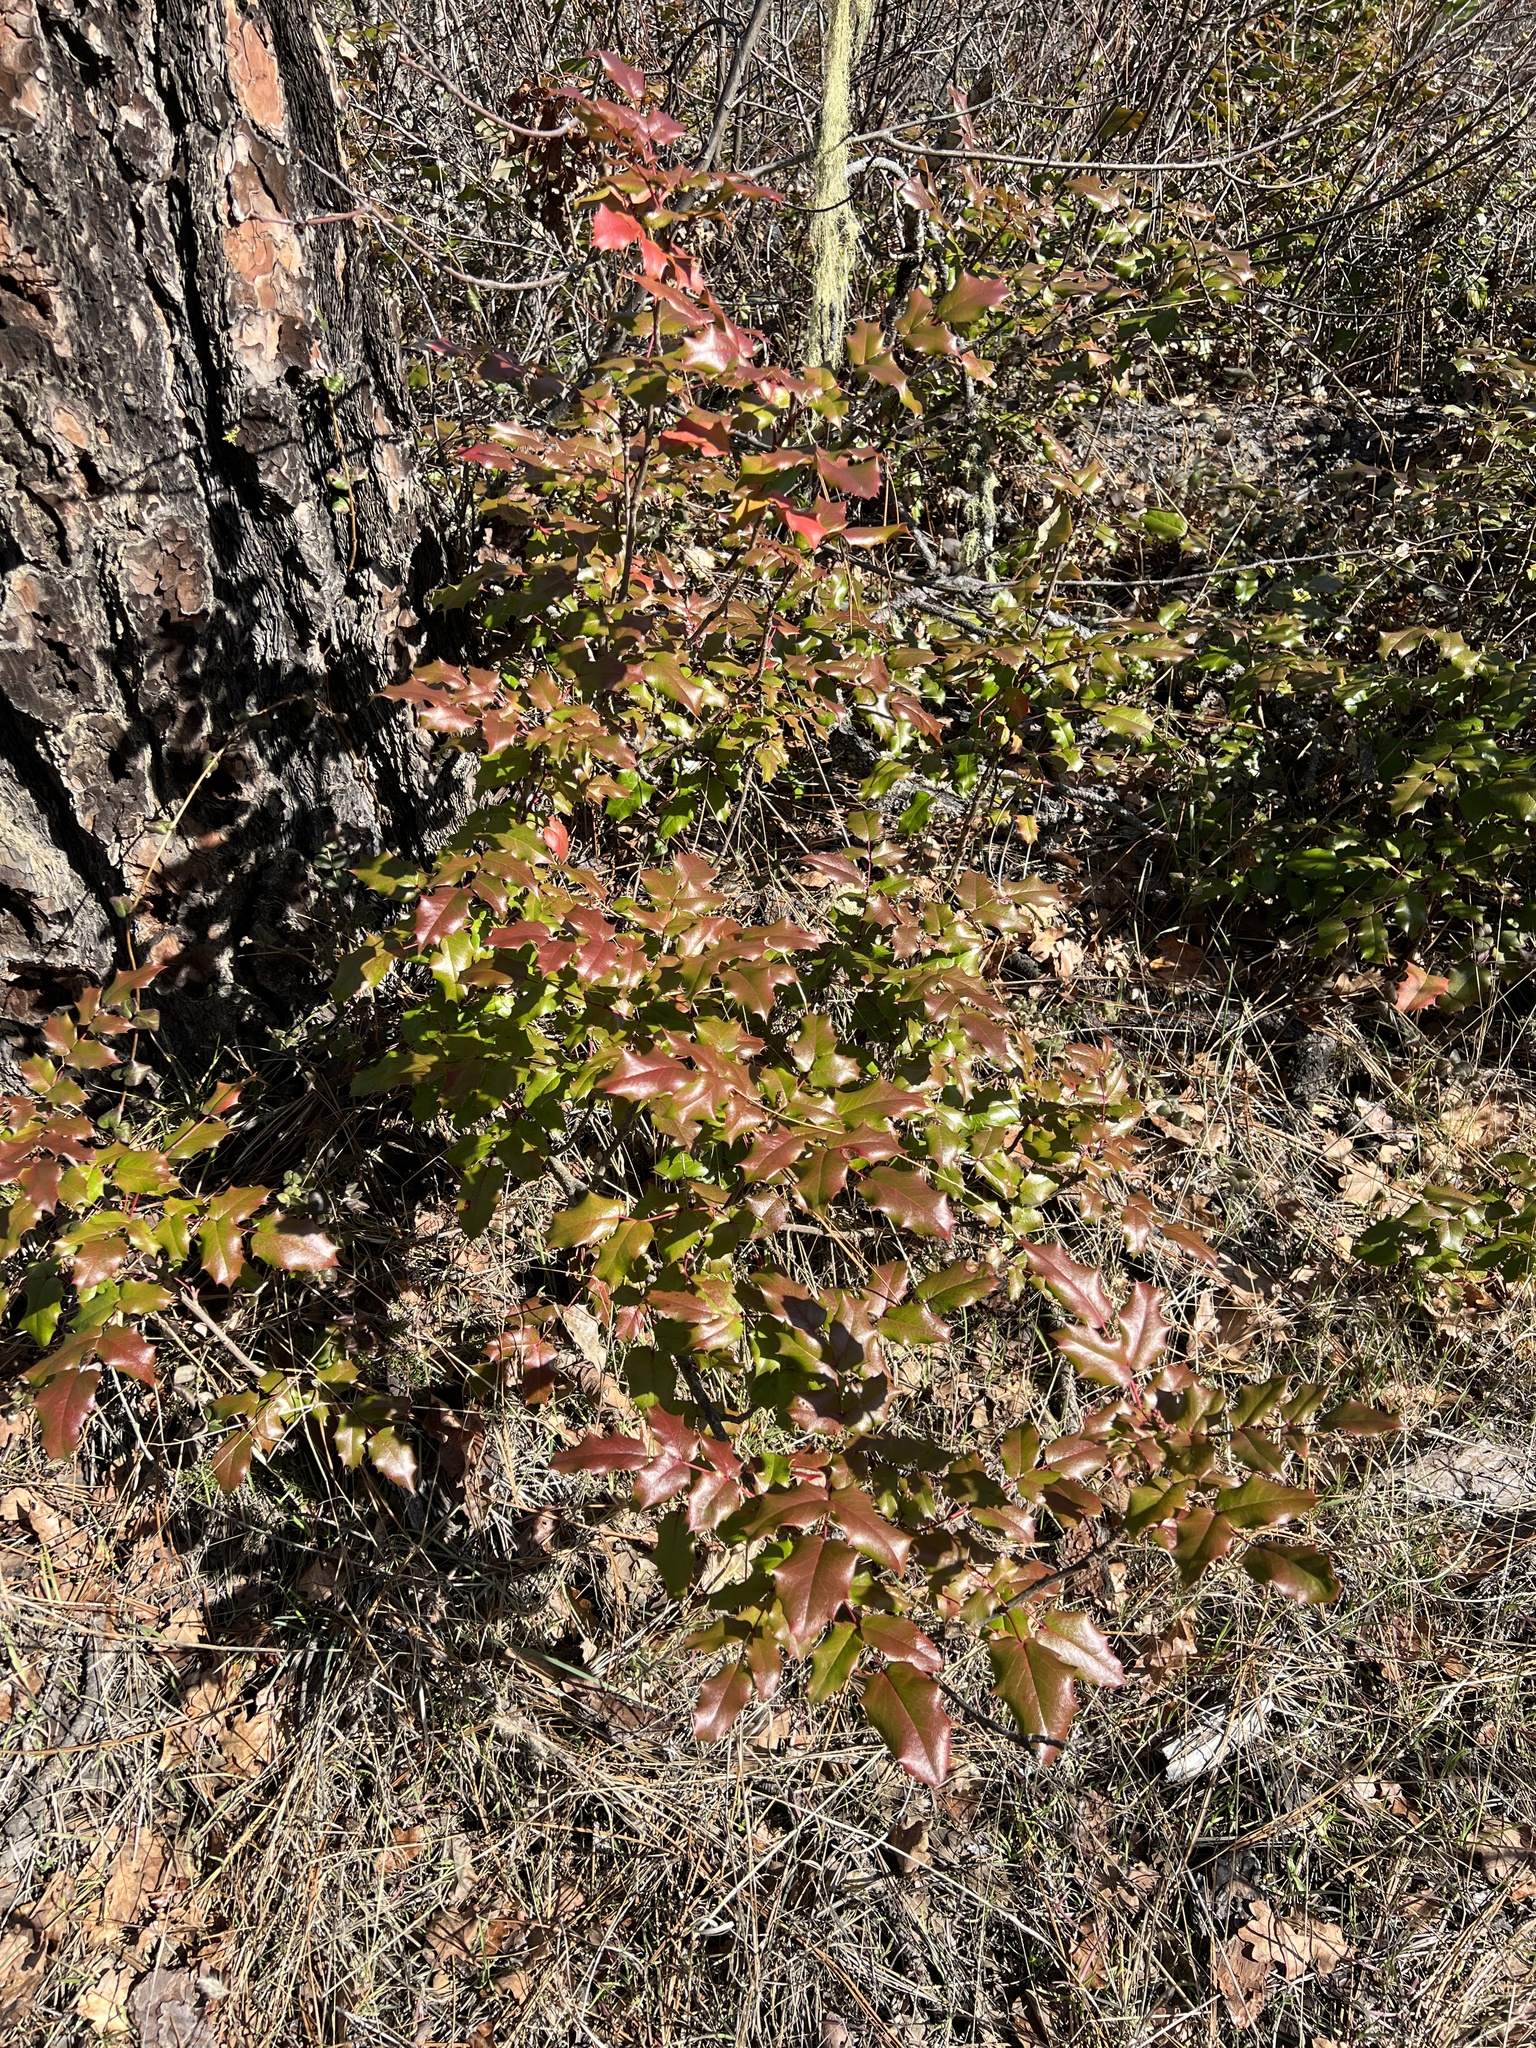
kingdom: Plantae
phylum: Tracheophyta
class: Magnoliopsida
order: Ranunculales
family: Berberidaceae
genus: Mahonia
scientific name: Mahonia aquifolium
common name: Oregon-grape
